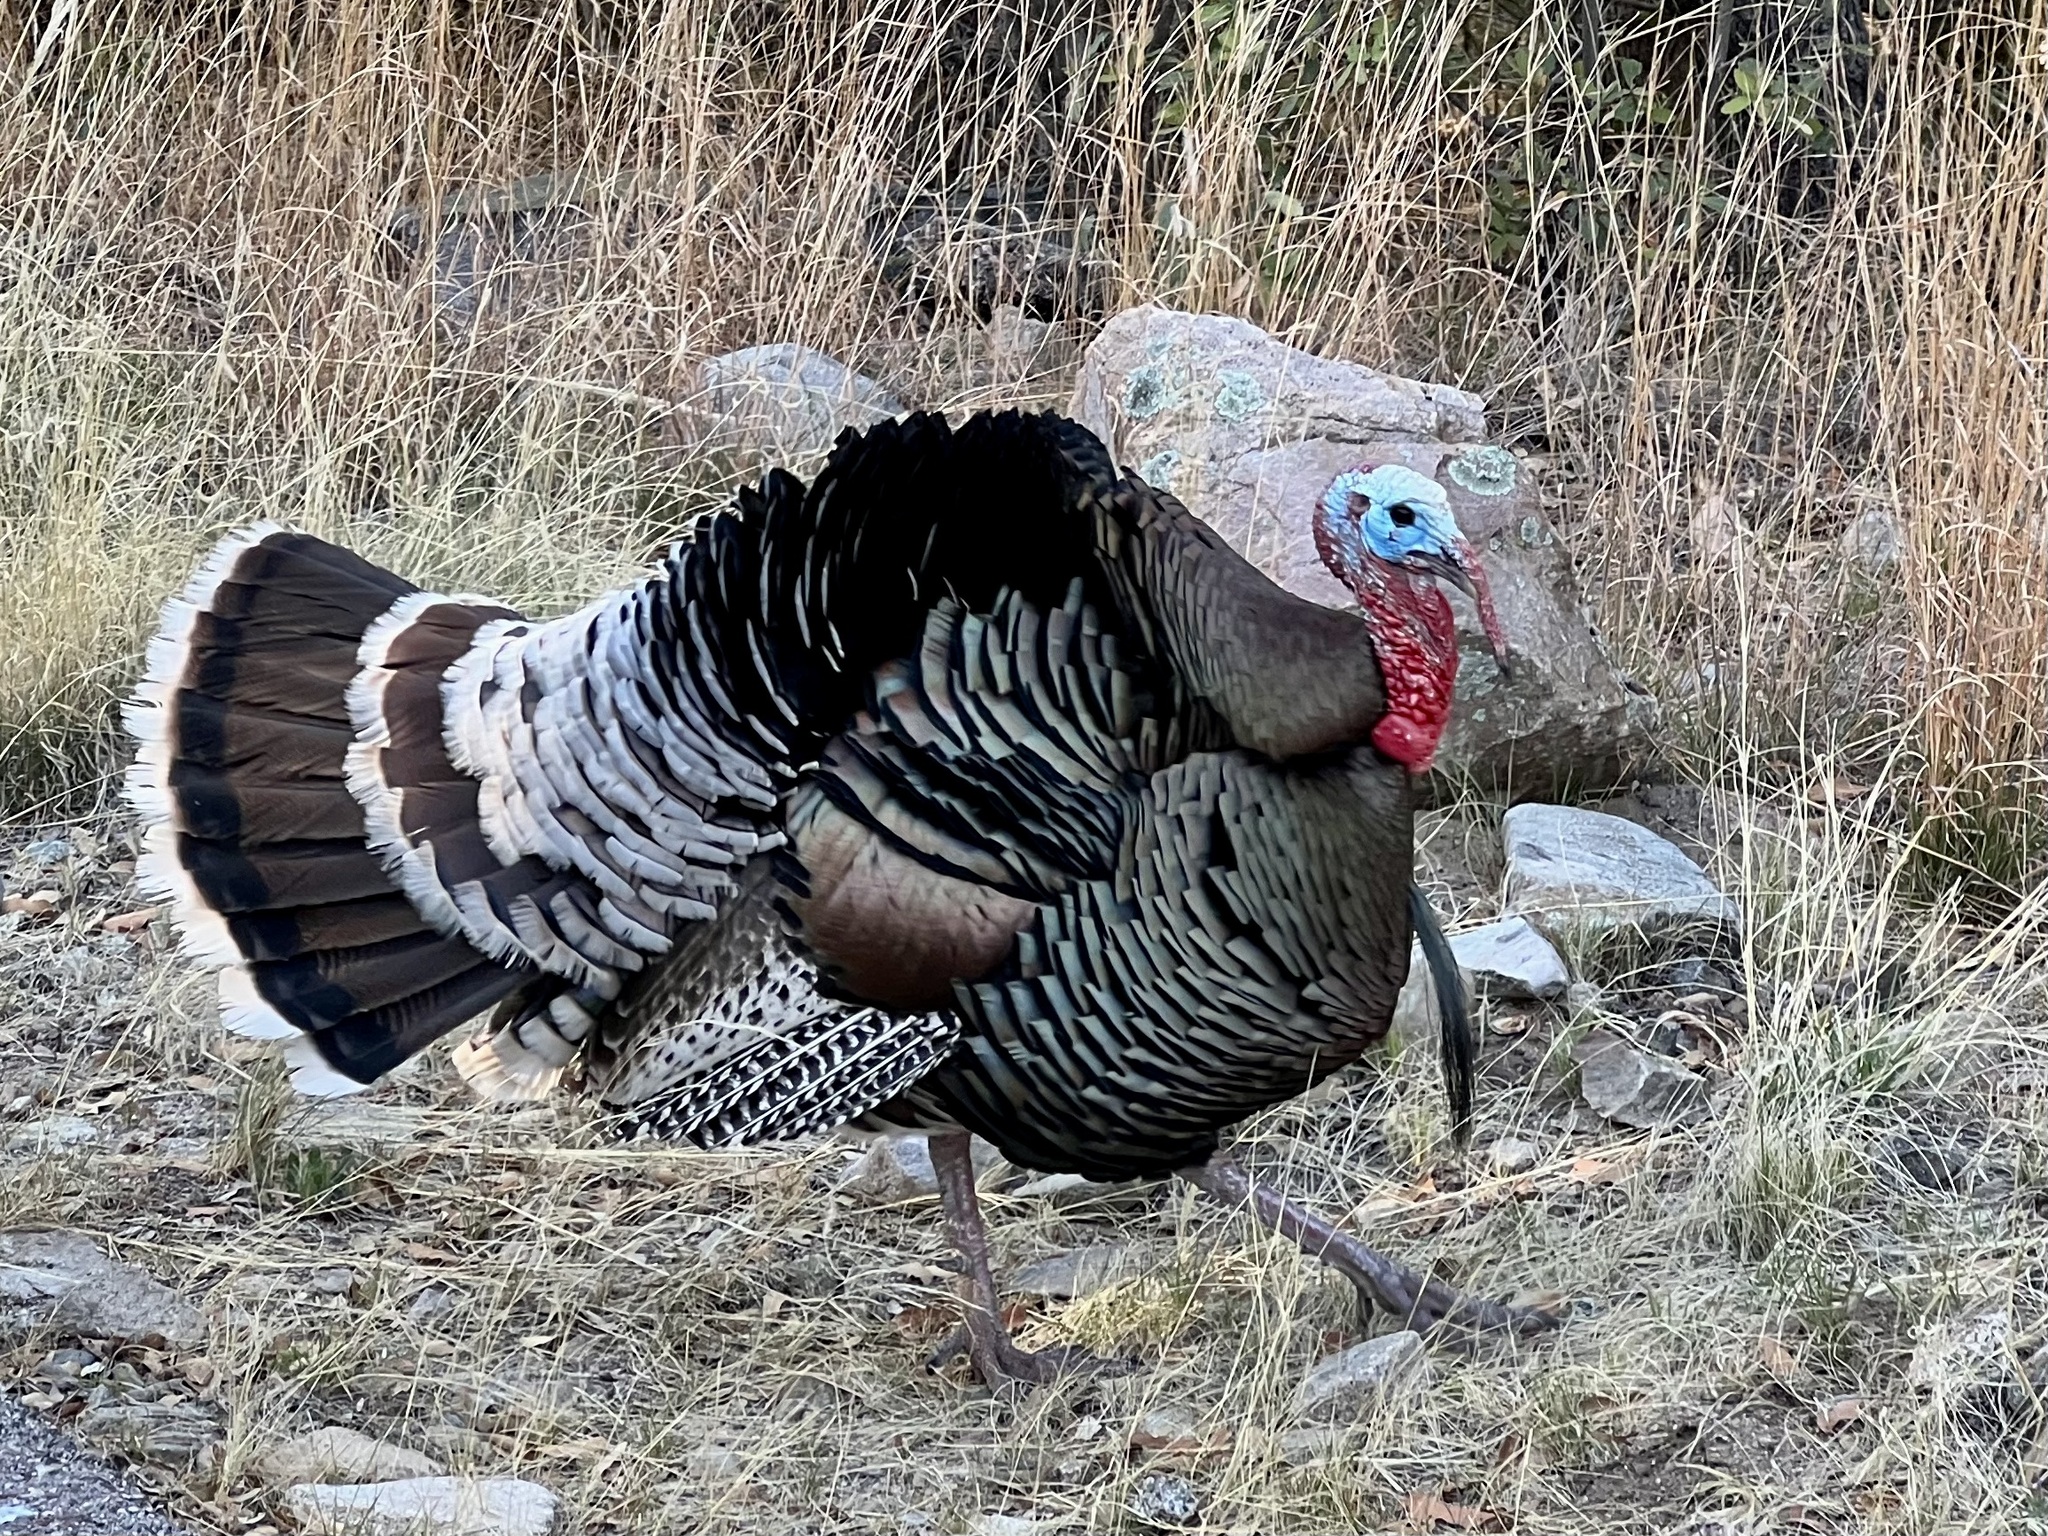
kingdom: Animalia
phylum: Chordata
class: Aves
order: Galliformes
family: Phasianidae
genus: Meleagris
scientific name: Meleagris gallopavo
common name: Wild turkey
